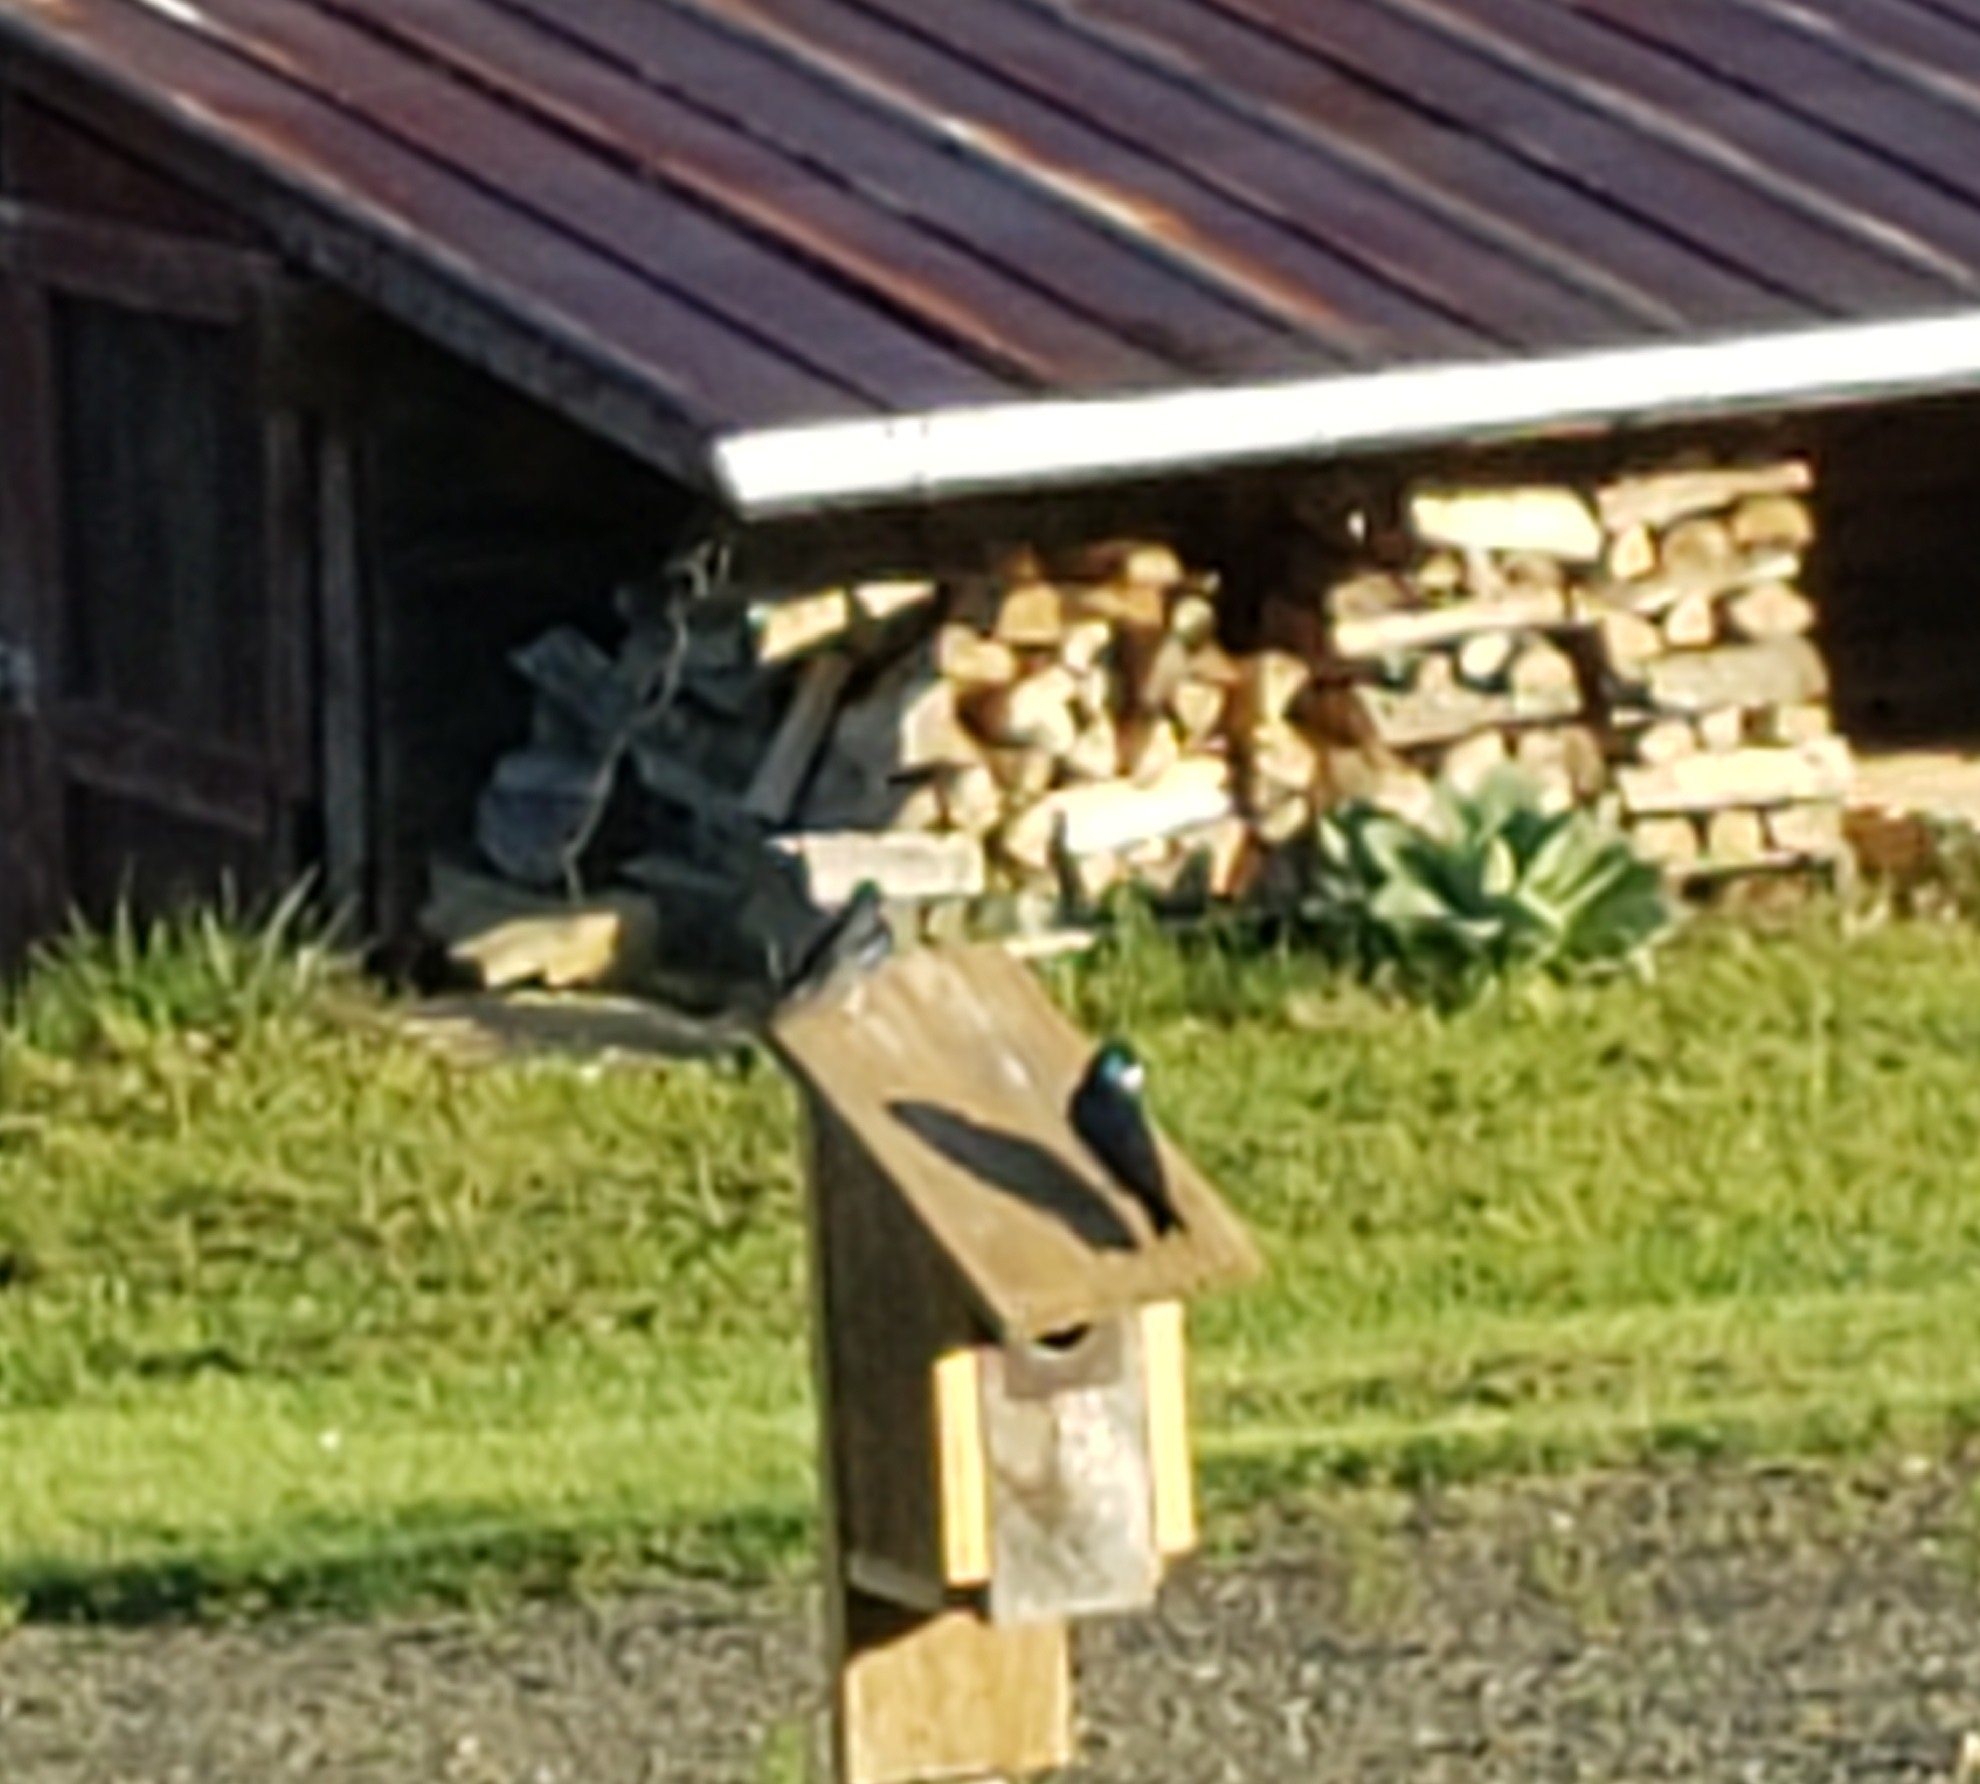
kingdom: Animalia
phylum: Chordata
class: Aves
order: Passeriformes
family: Hirundinidae
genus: Tachycineta
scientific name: Tachycineta bicolor
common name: Tree swallow
